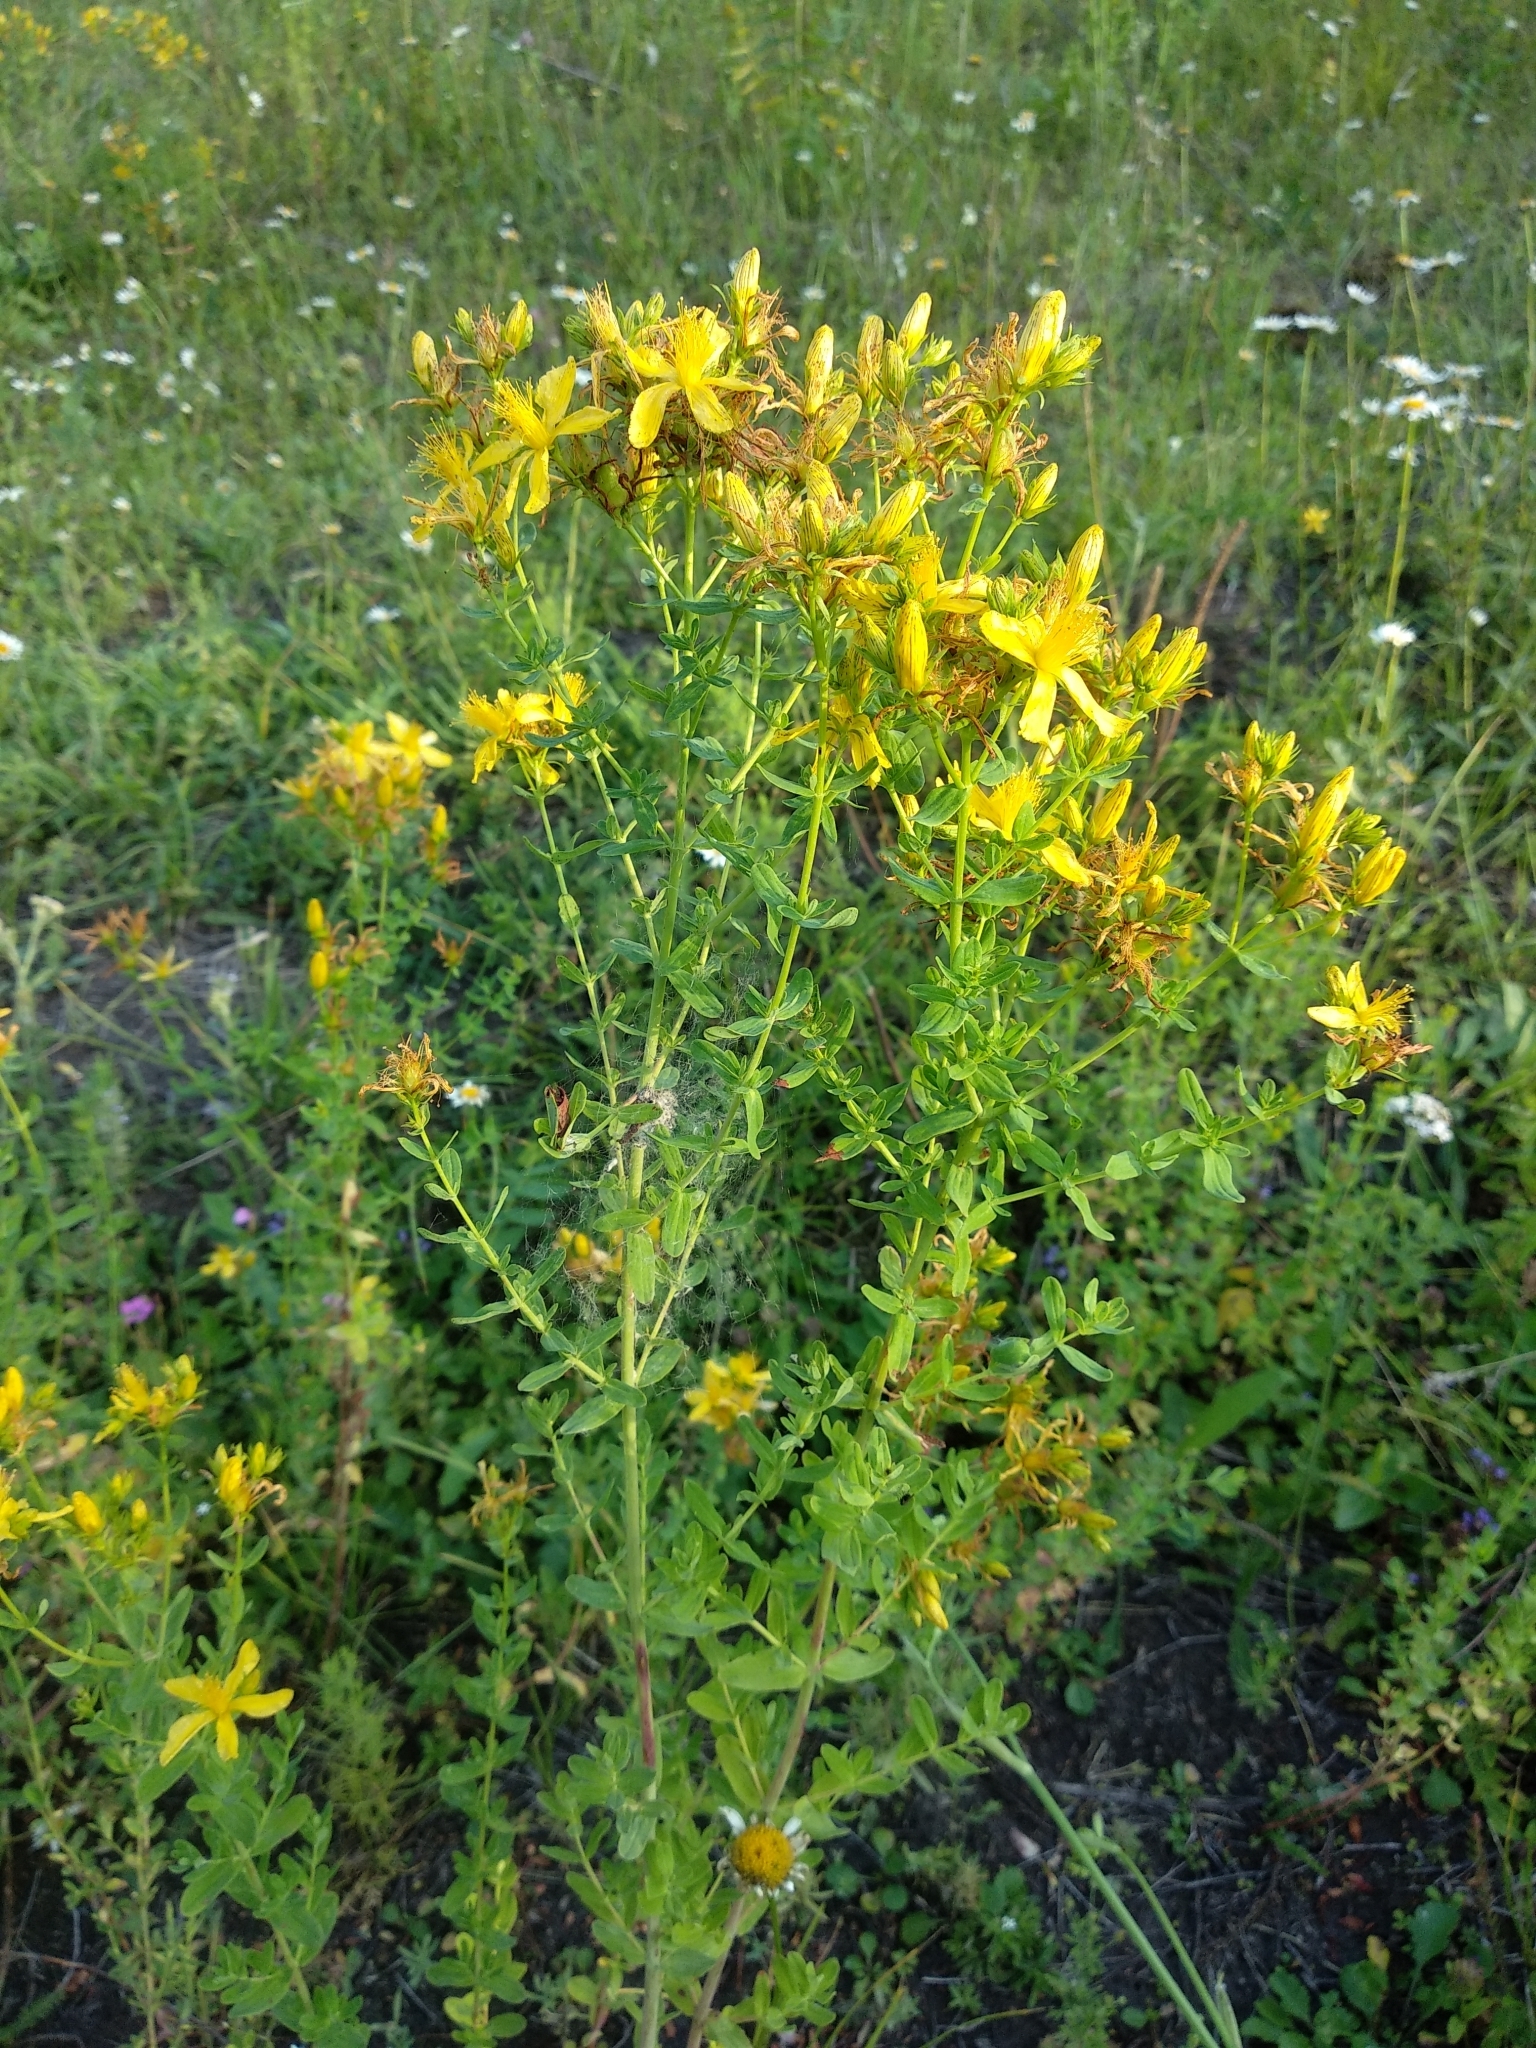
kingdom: Plantae
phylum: Tracheophyta
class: Magnoliopsida
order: Malpighiales
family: Hypericaceae
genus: Hypericum
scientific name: Hypericum perforatum
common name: Common st. johnswort
